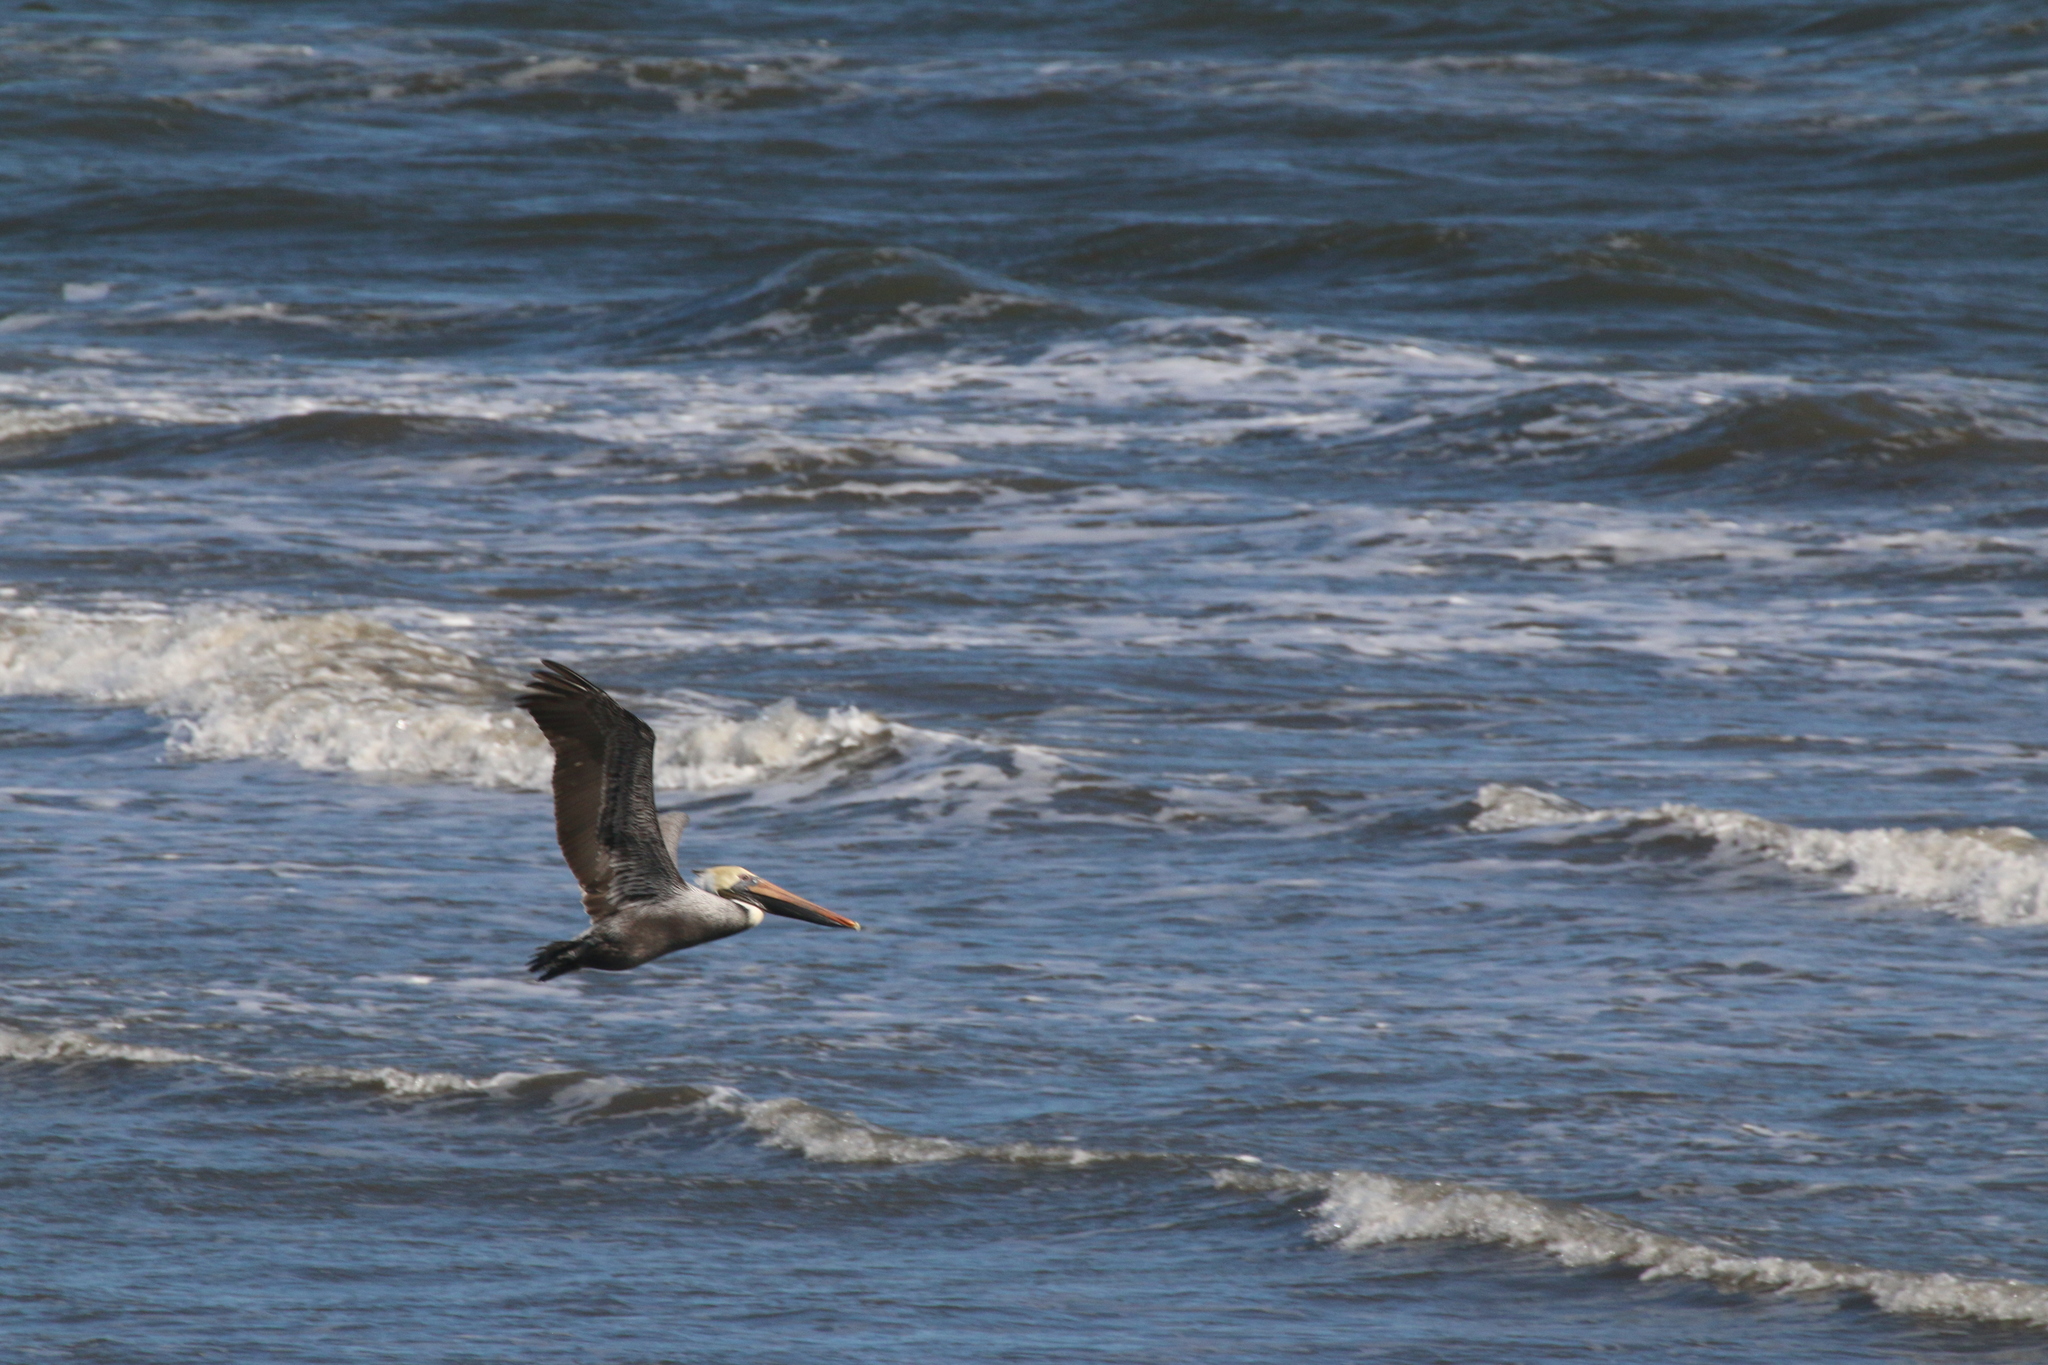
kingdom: Animalia
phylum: Chordata
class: Aves
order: Pelecaniformes
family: Pelecanidae
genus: Pelecanus
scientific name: Pelecanus occidentalis
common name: Brown pelican
